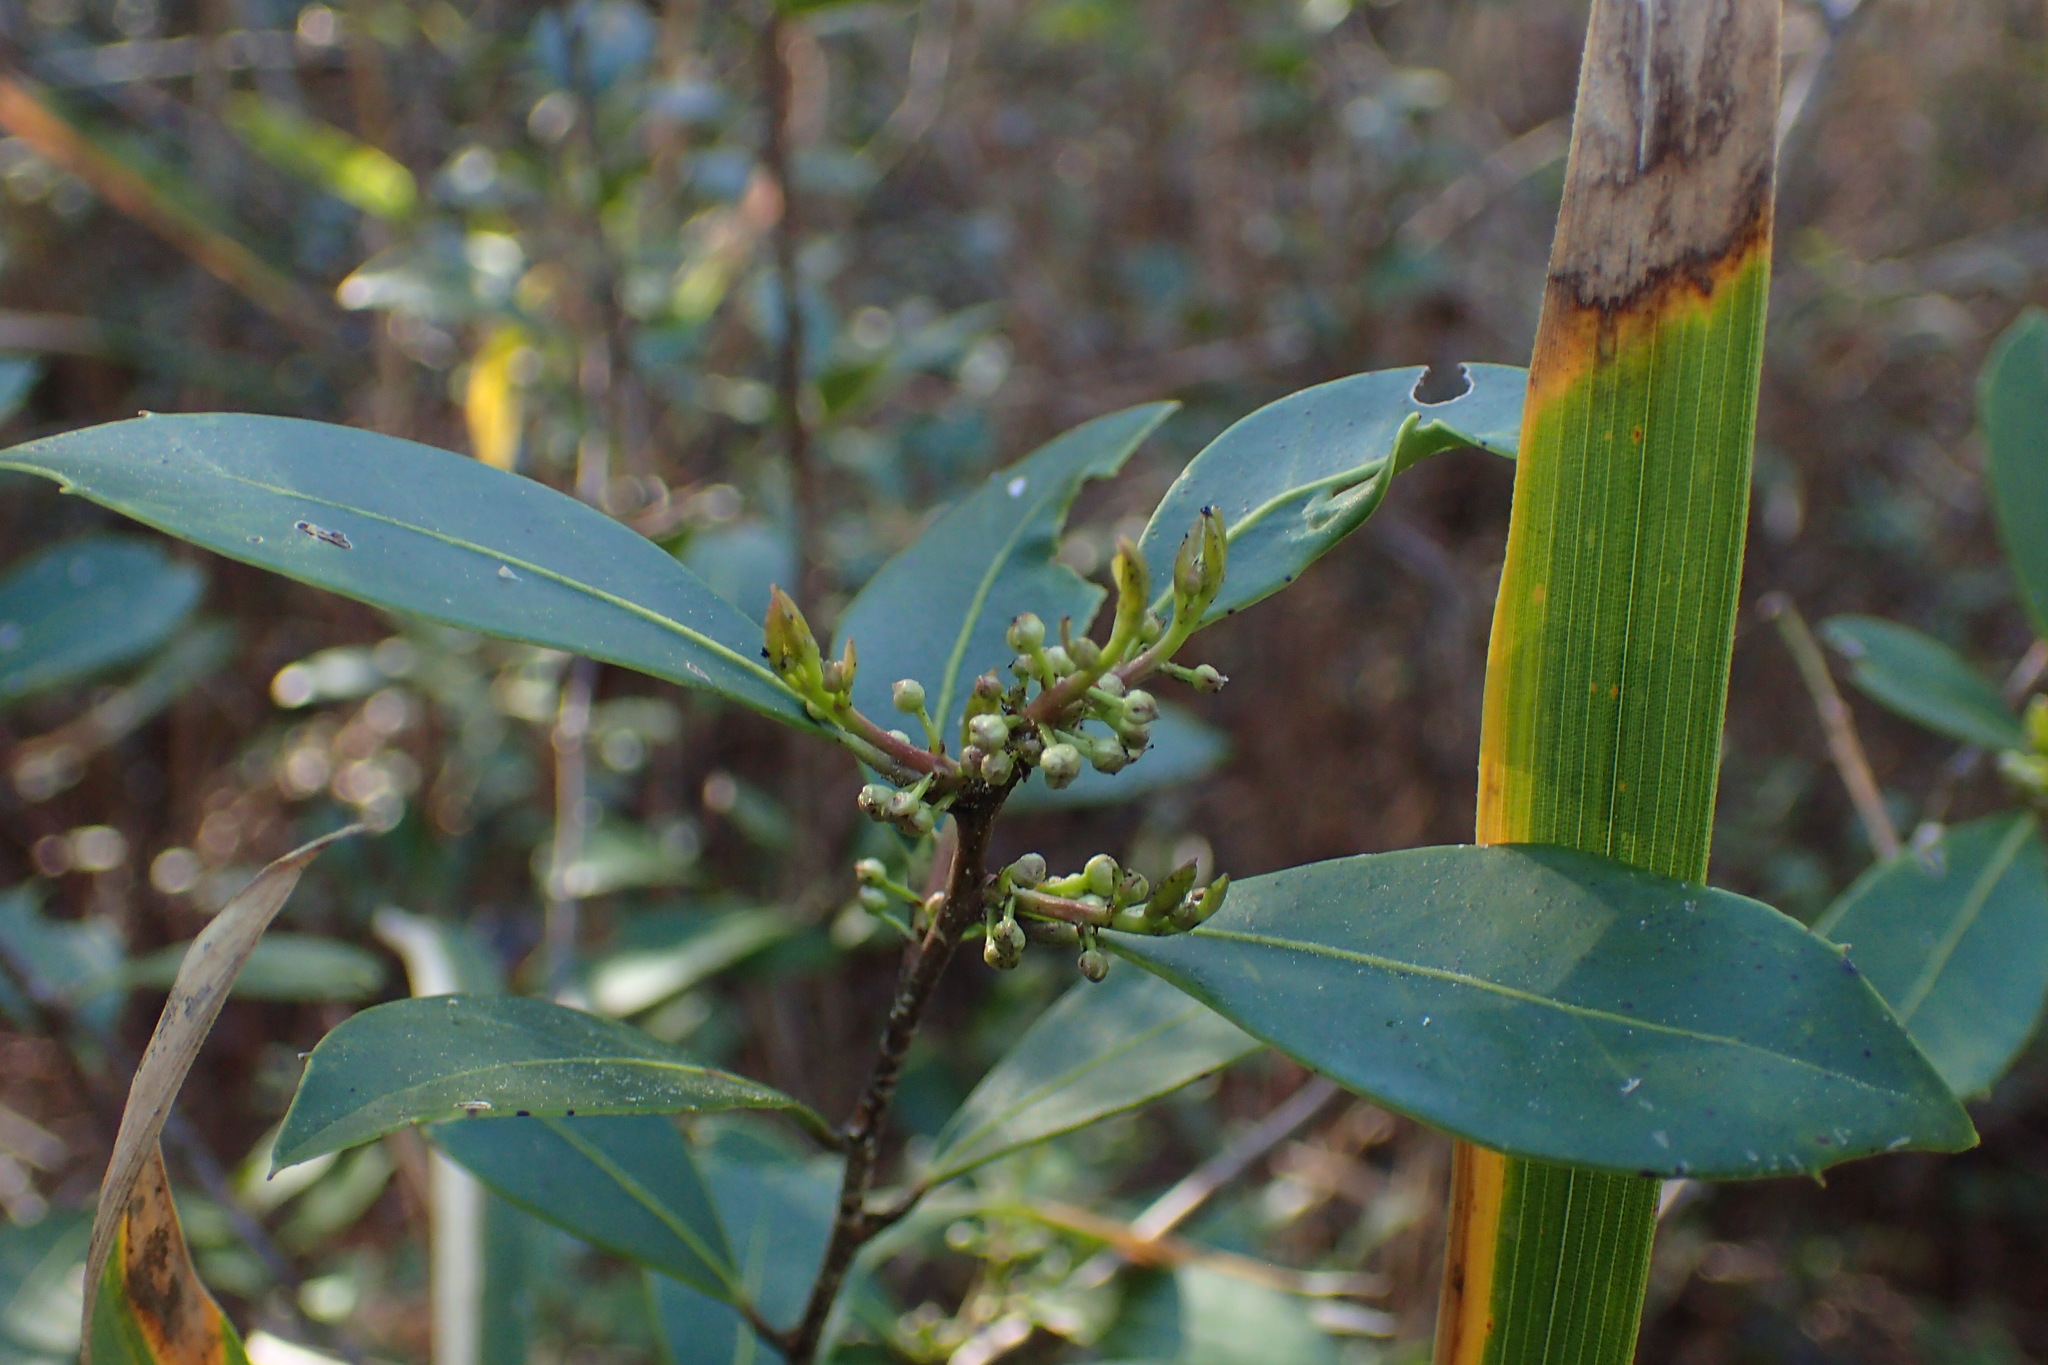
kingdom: Plantae
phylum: Tracheophyta
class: Magnoliopsida
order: Aquifoliales
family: Aquifoliaceae
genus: Ilex
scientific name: Ilex coriacea
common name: Sweet gallberry
